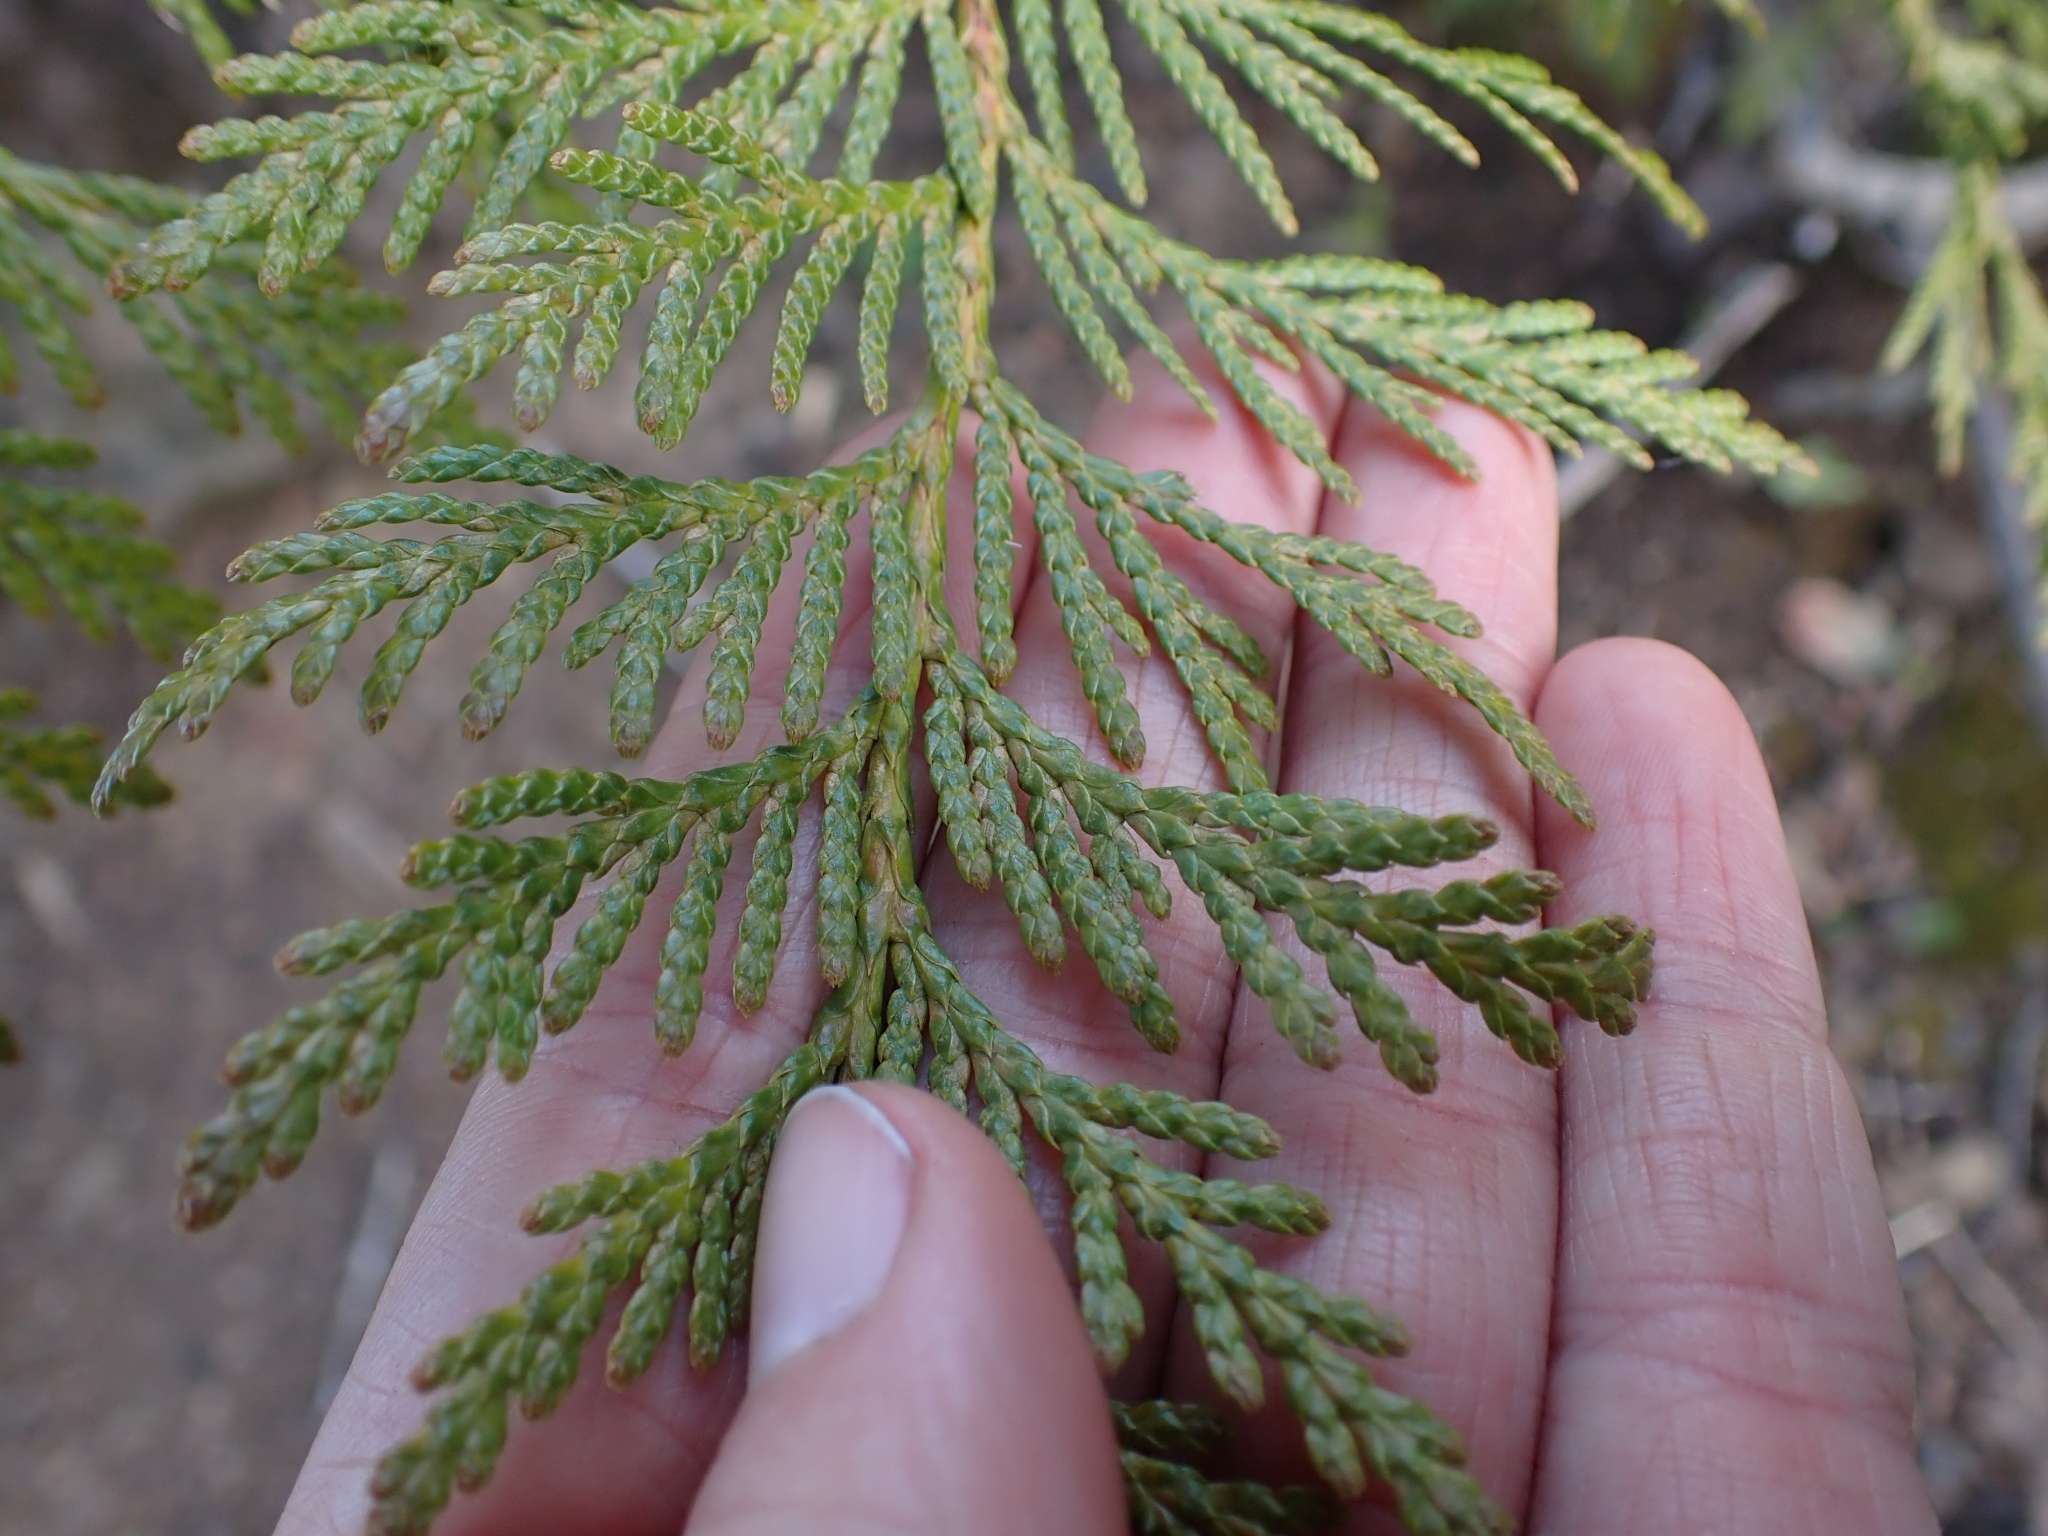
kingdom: Plantae
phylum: Tracheophyta
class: Pinopsida
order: Pinales
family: Cupressaceae
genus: Thuja
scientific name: Thuja plicata
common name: Western red-cedar
